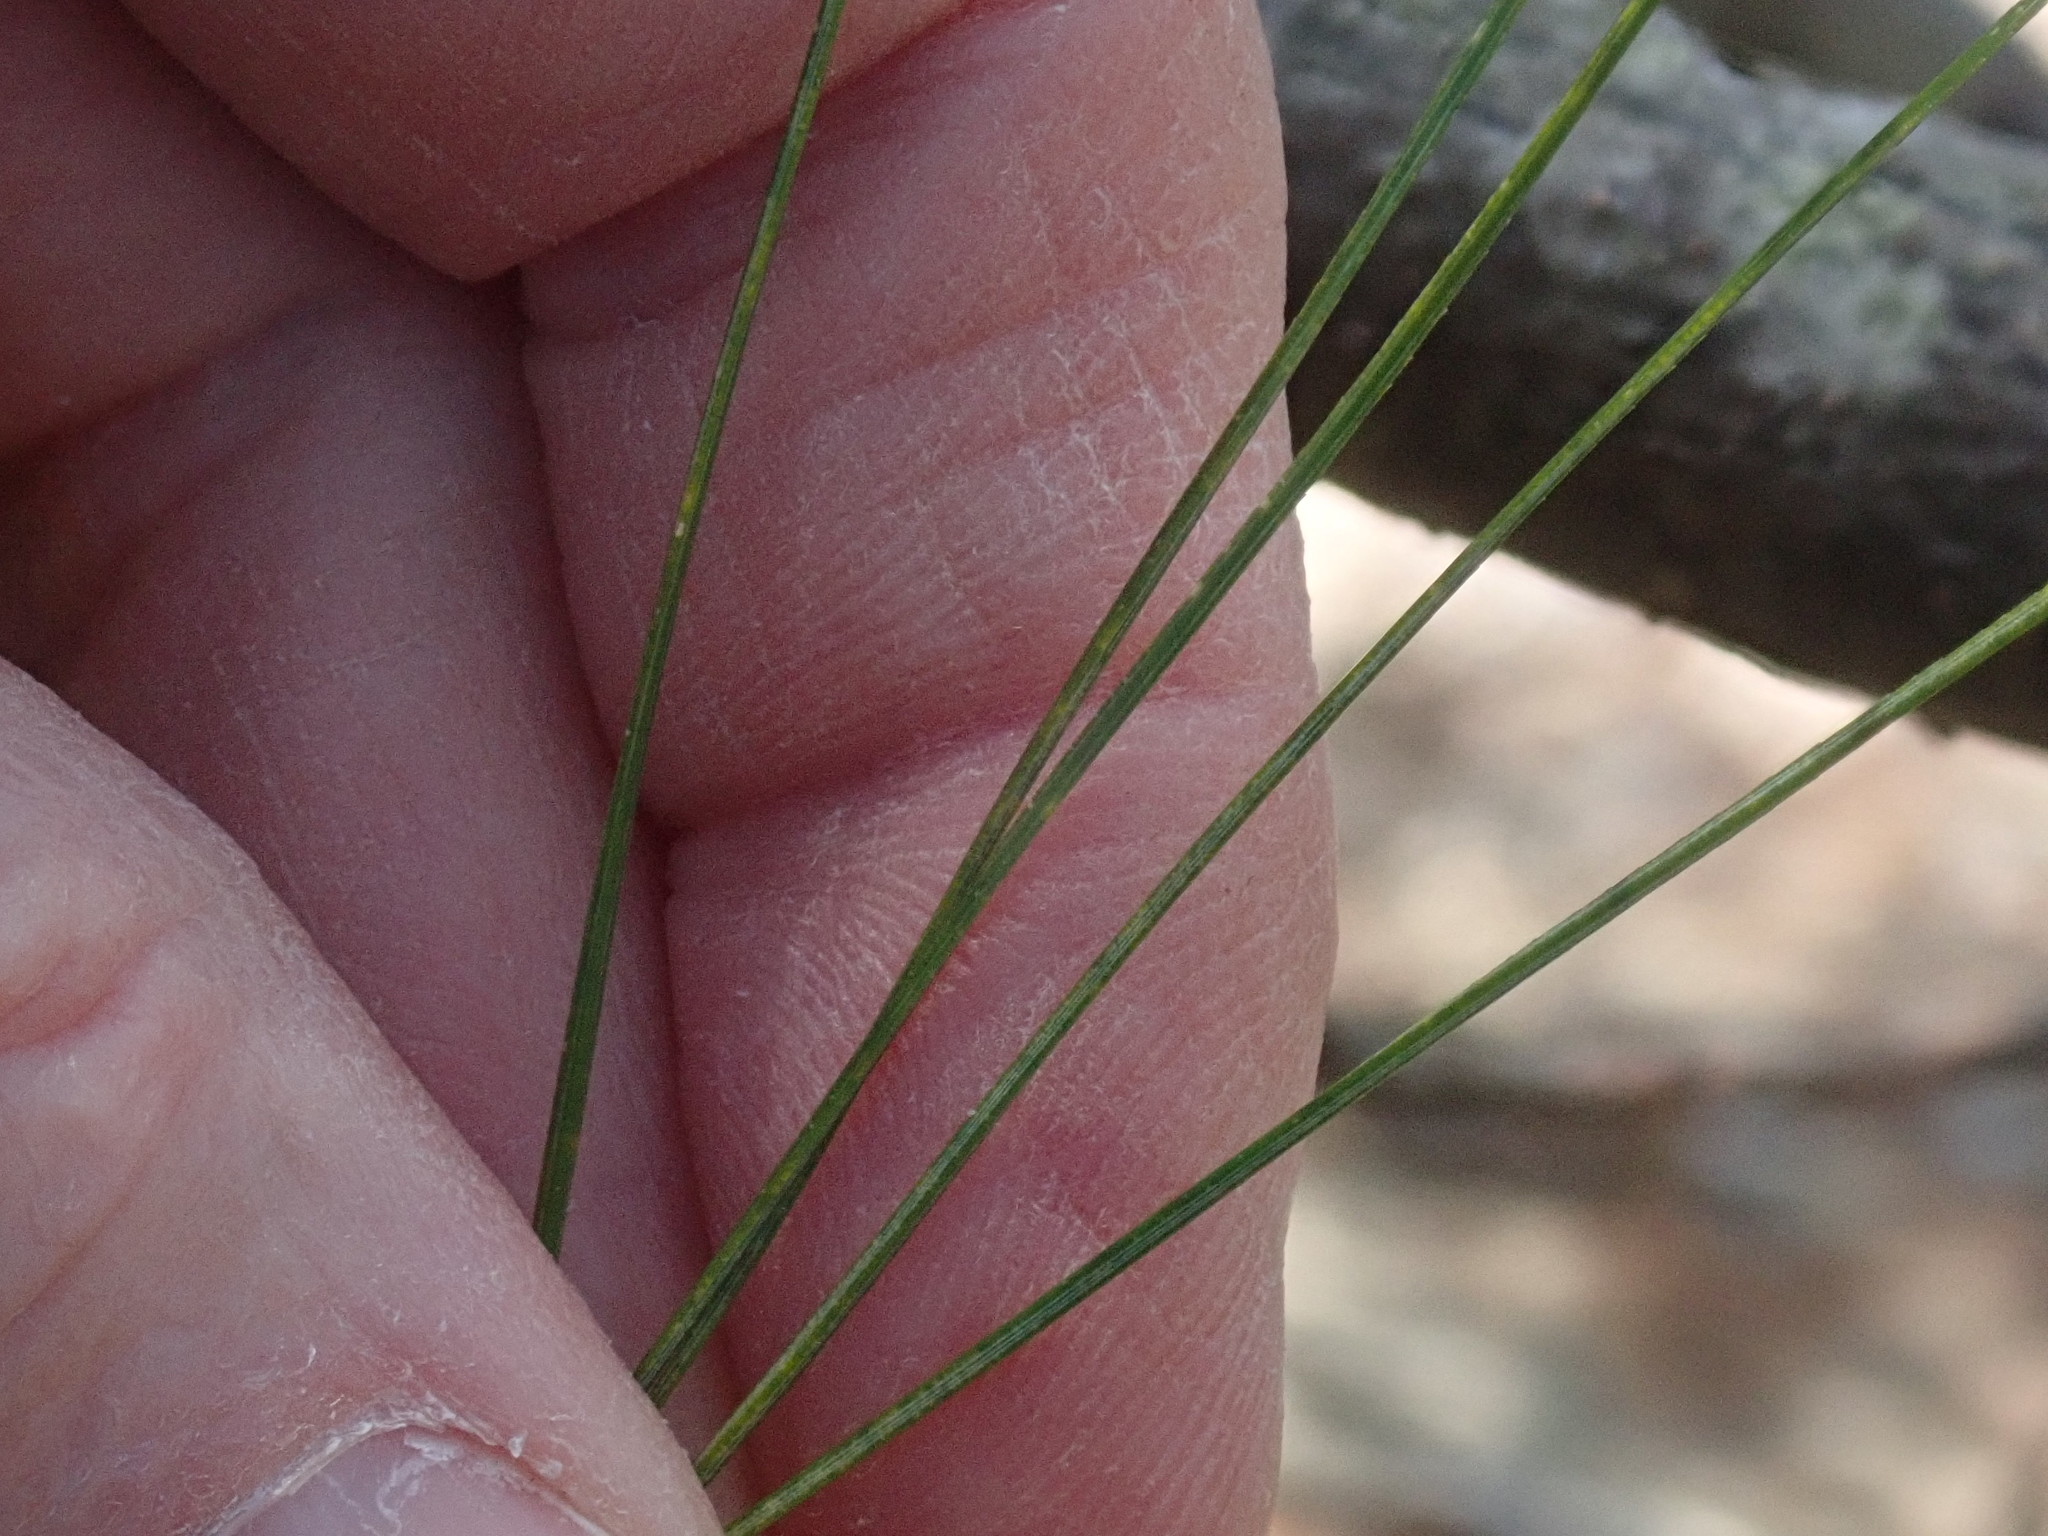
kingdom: Plantae
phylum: Tracheophyta
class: Pinopsida
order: Pinales
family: Pinaceae
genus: Pinus
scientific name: Pinus strobus
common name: Weymouth pine
